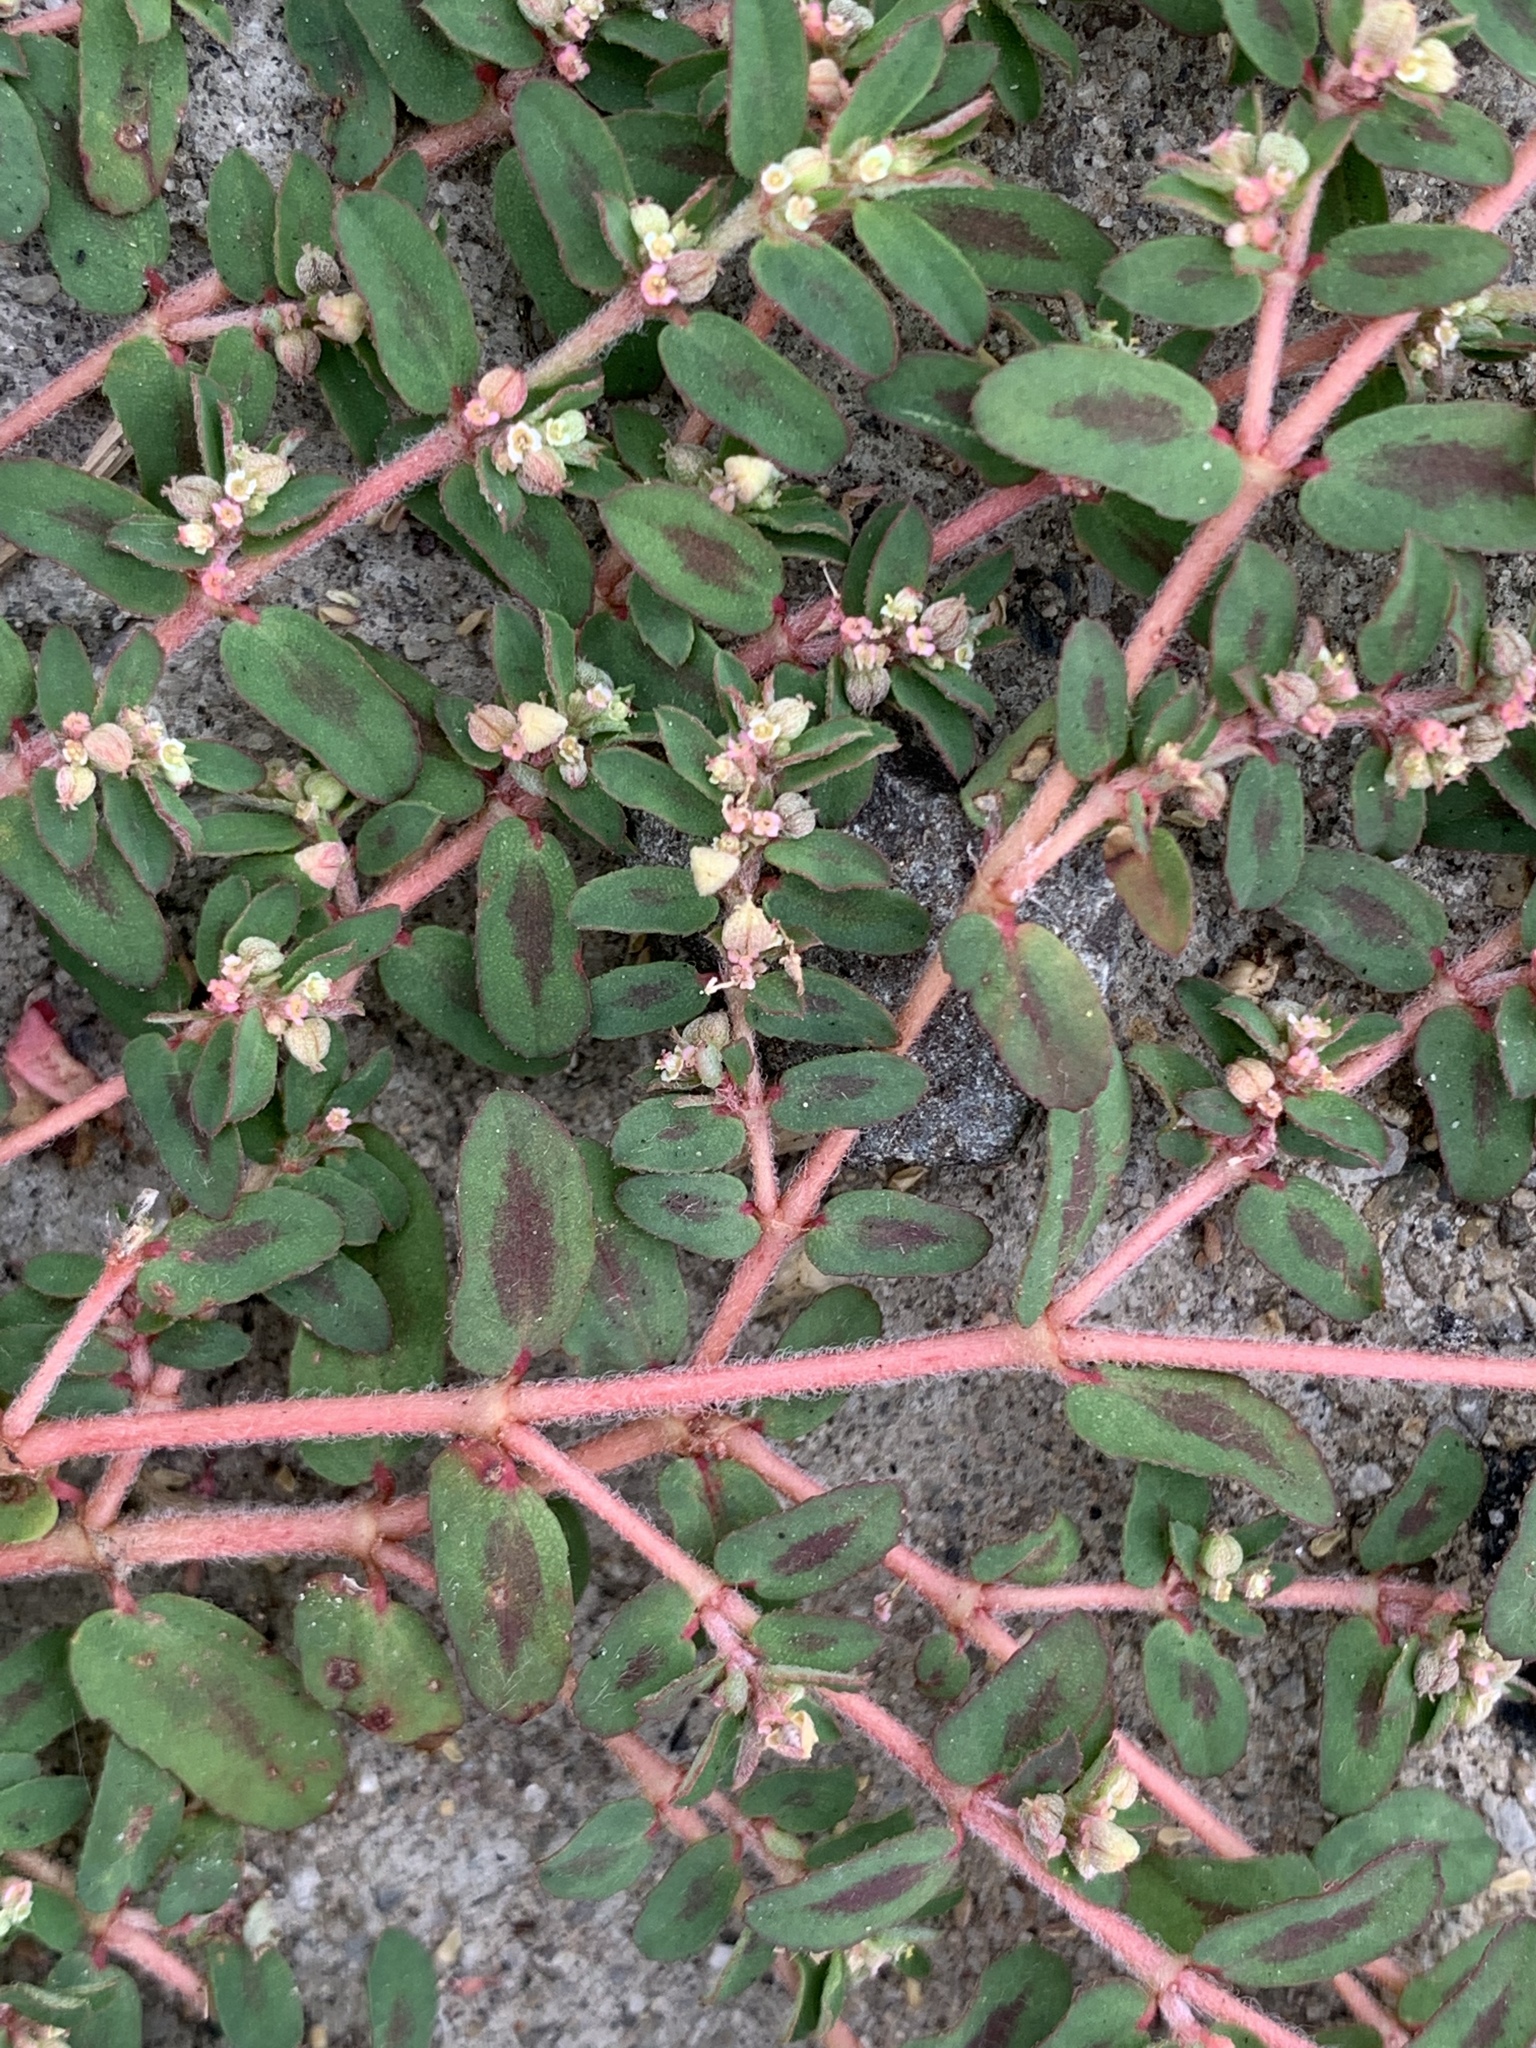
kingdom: Plantae
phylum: Tracheophyta
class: Magnoliopsida
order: Malpighiales
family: Euphorbiaceae
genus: Euphorbia
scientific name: Euphorbia maculata
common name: Spotted spurge
